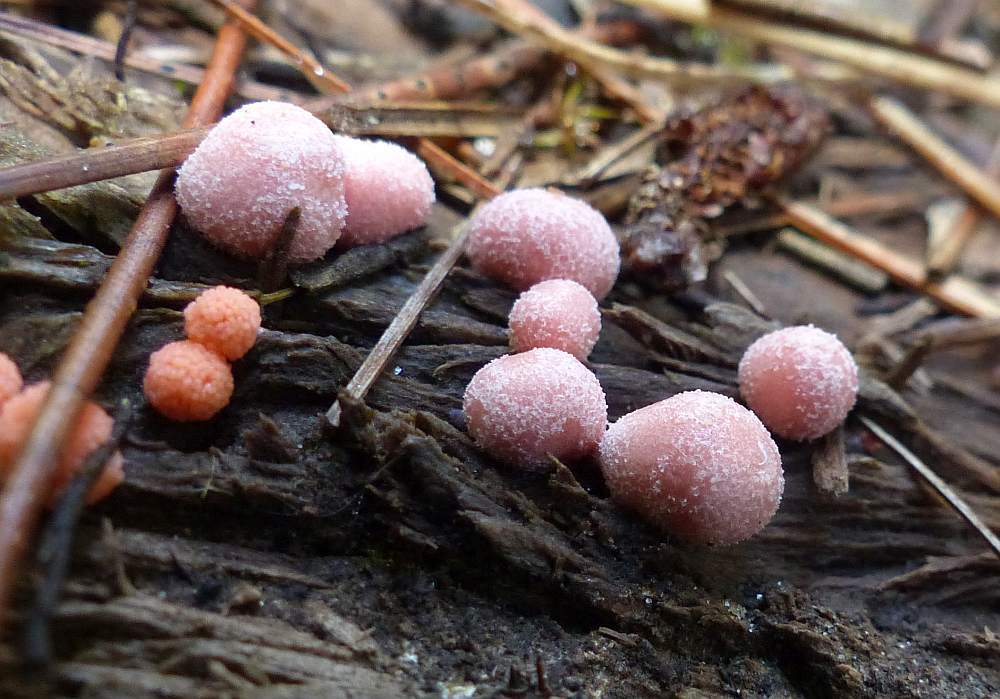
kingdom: Protozoa
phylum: Mycetozoa
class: Myxomycetes
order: Cribrariales
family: Tubiferaceae
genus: Lycogala
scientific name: Lycogala epidendrum
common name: Wolf's milk
